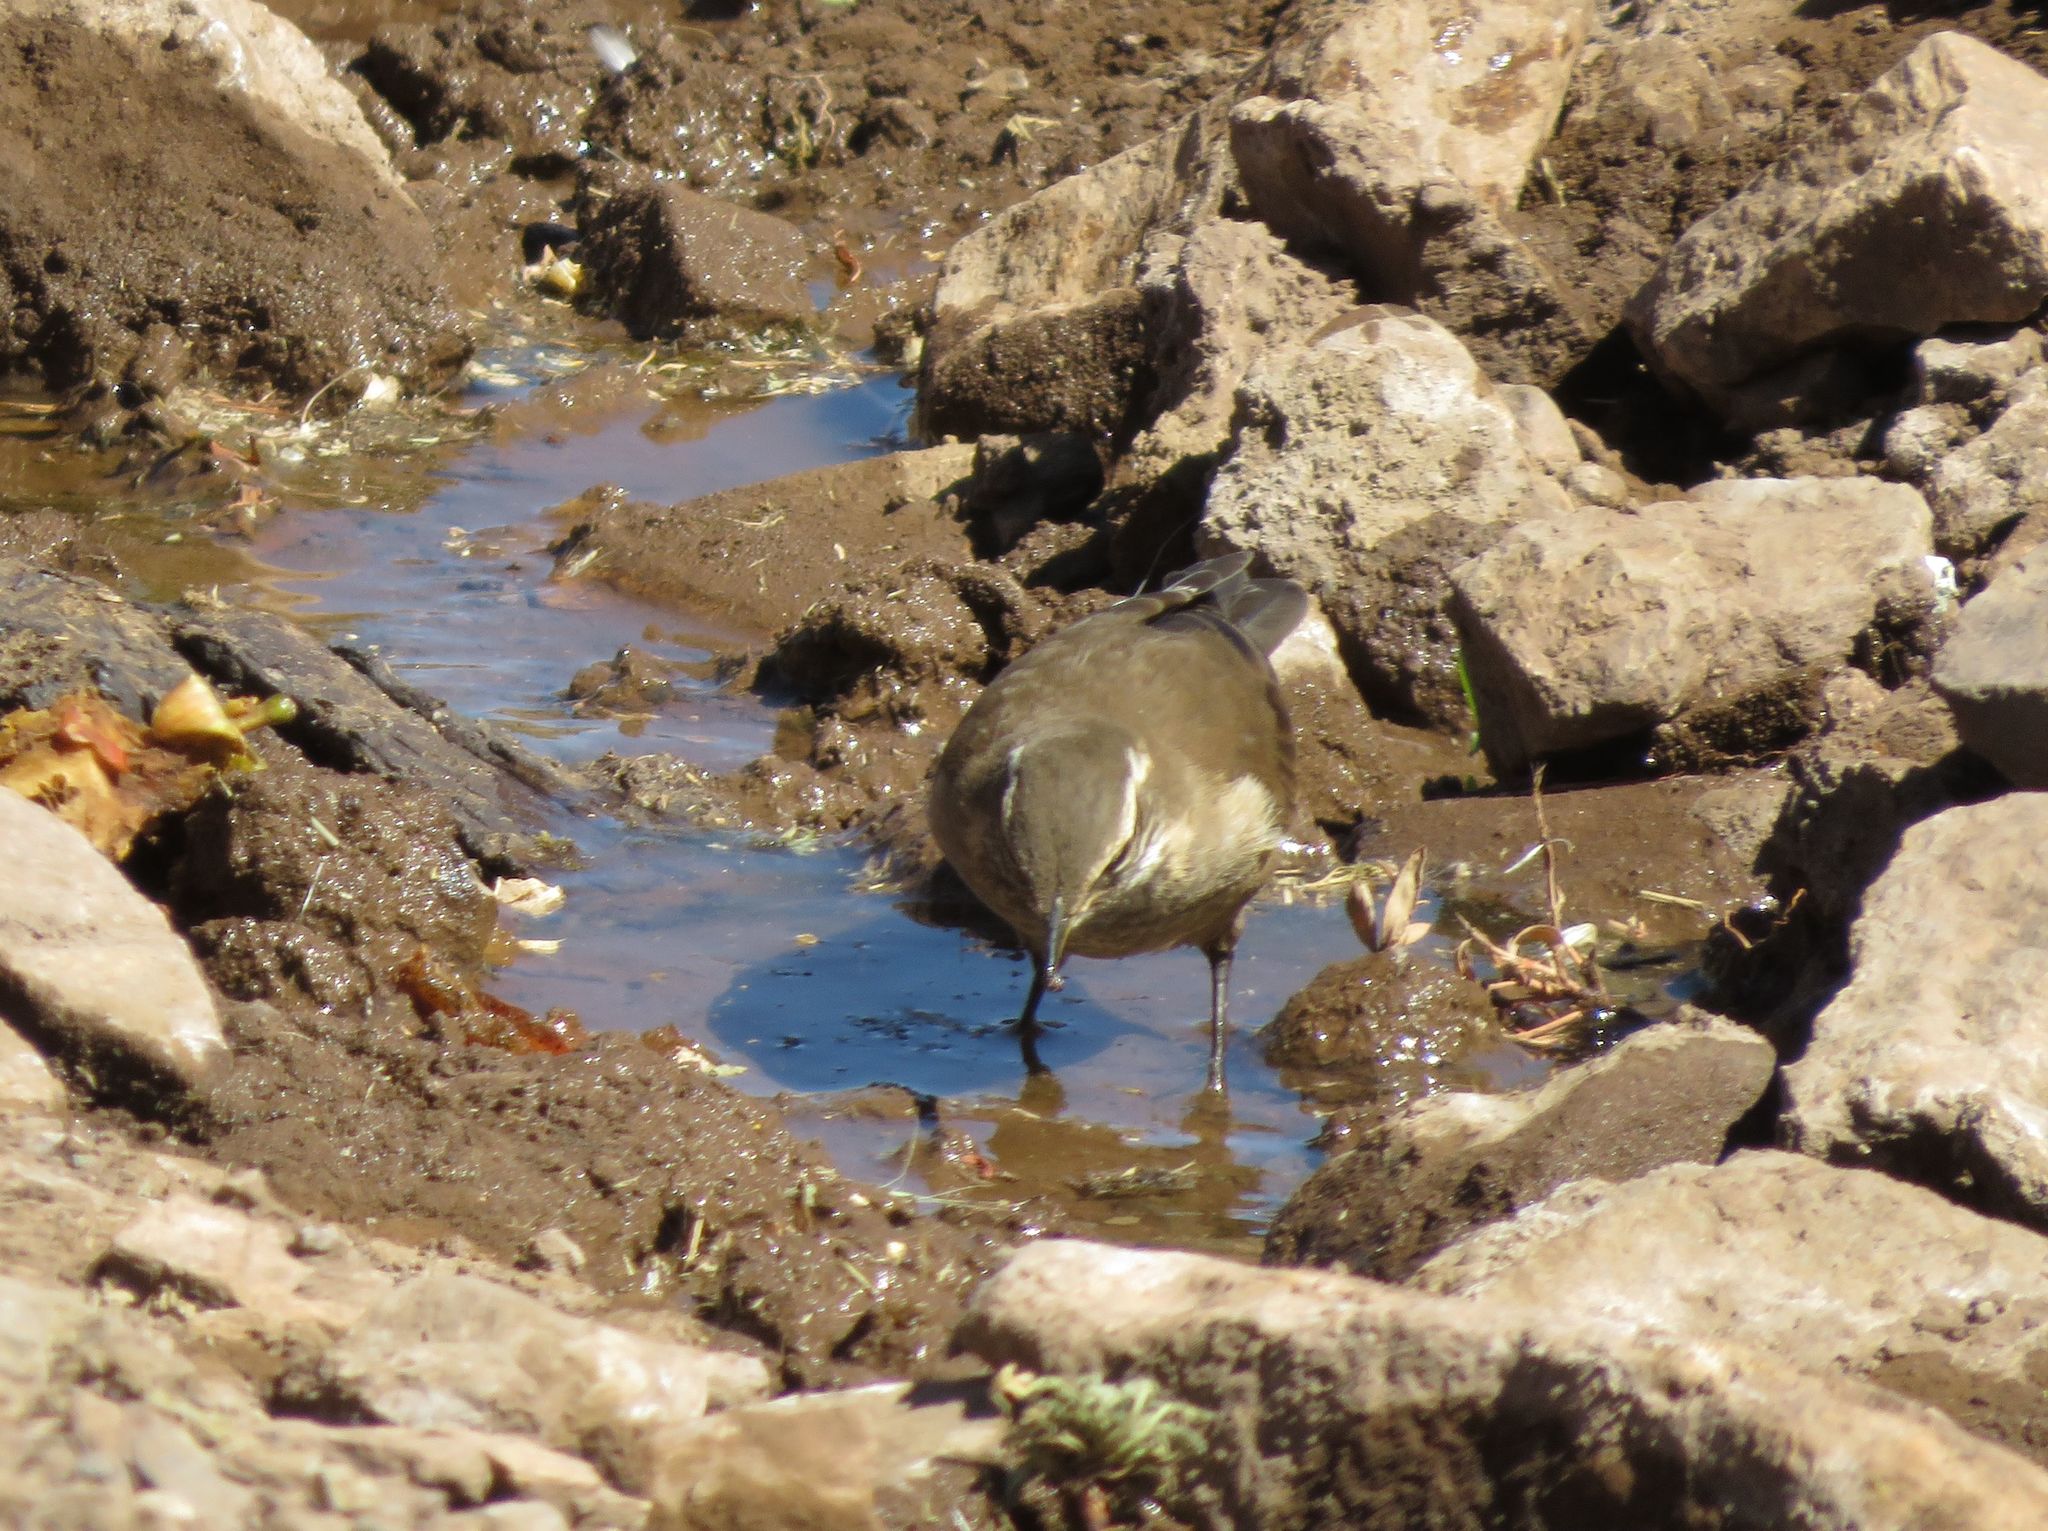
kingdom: Animalia
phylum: Chordata
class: Aves
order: Passeriformes
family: Furnariidae
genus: Cinclodes
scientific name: Cinclodes fuscus
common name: Buff-winged cinclodes
